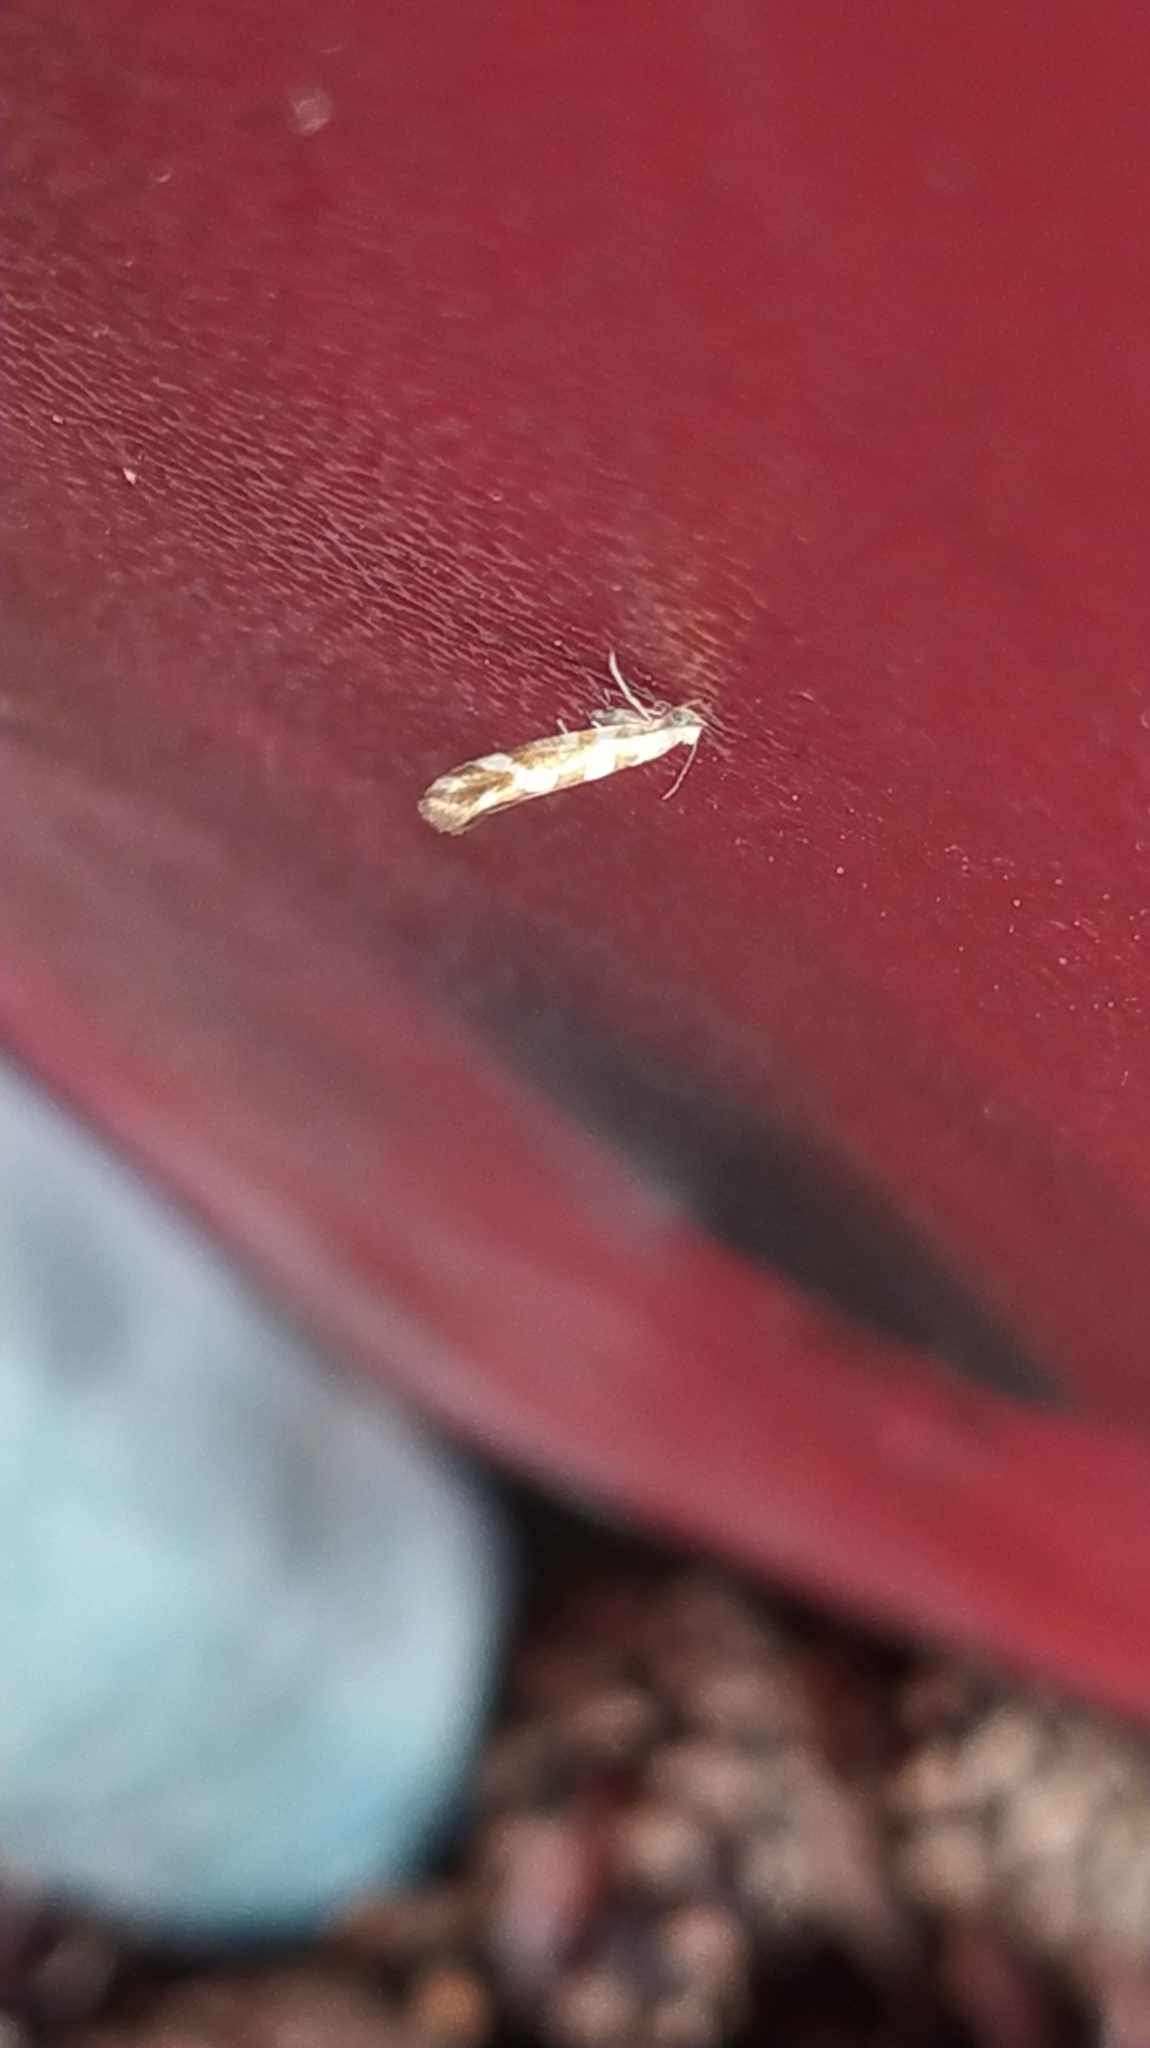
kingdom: Animalia
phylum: Arthropoda
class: Insecta
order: Lepidoptera
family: Argyresthiidae
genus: Argyresthia
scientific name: Argyresthia goedartella
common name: Golden argent
